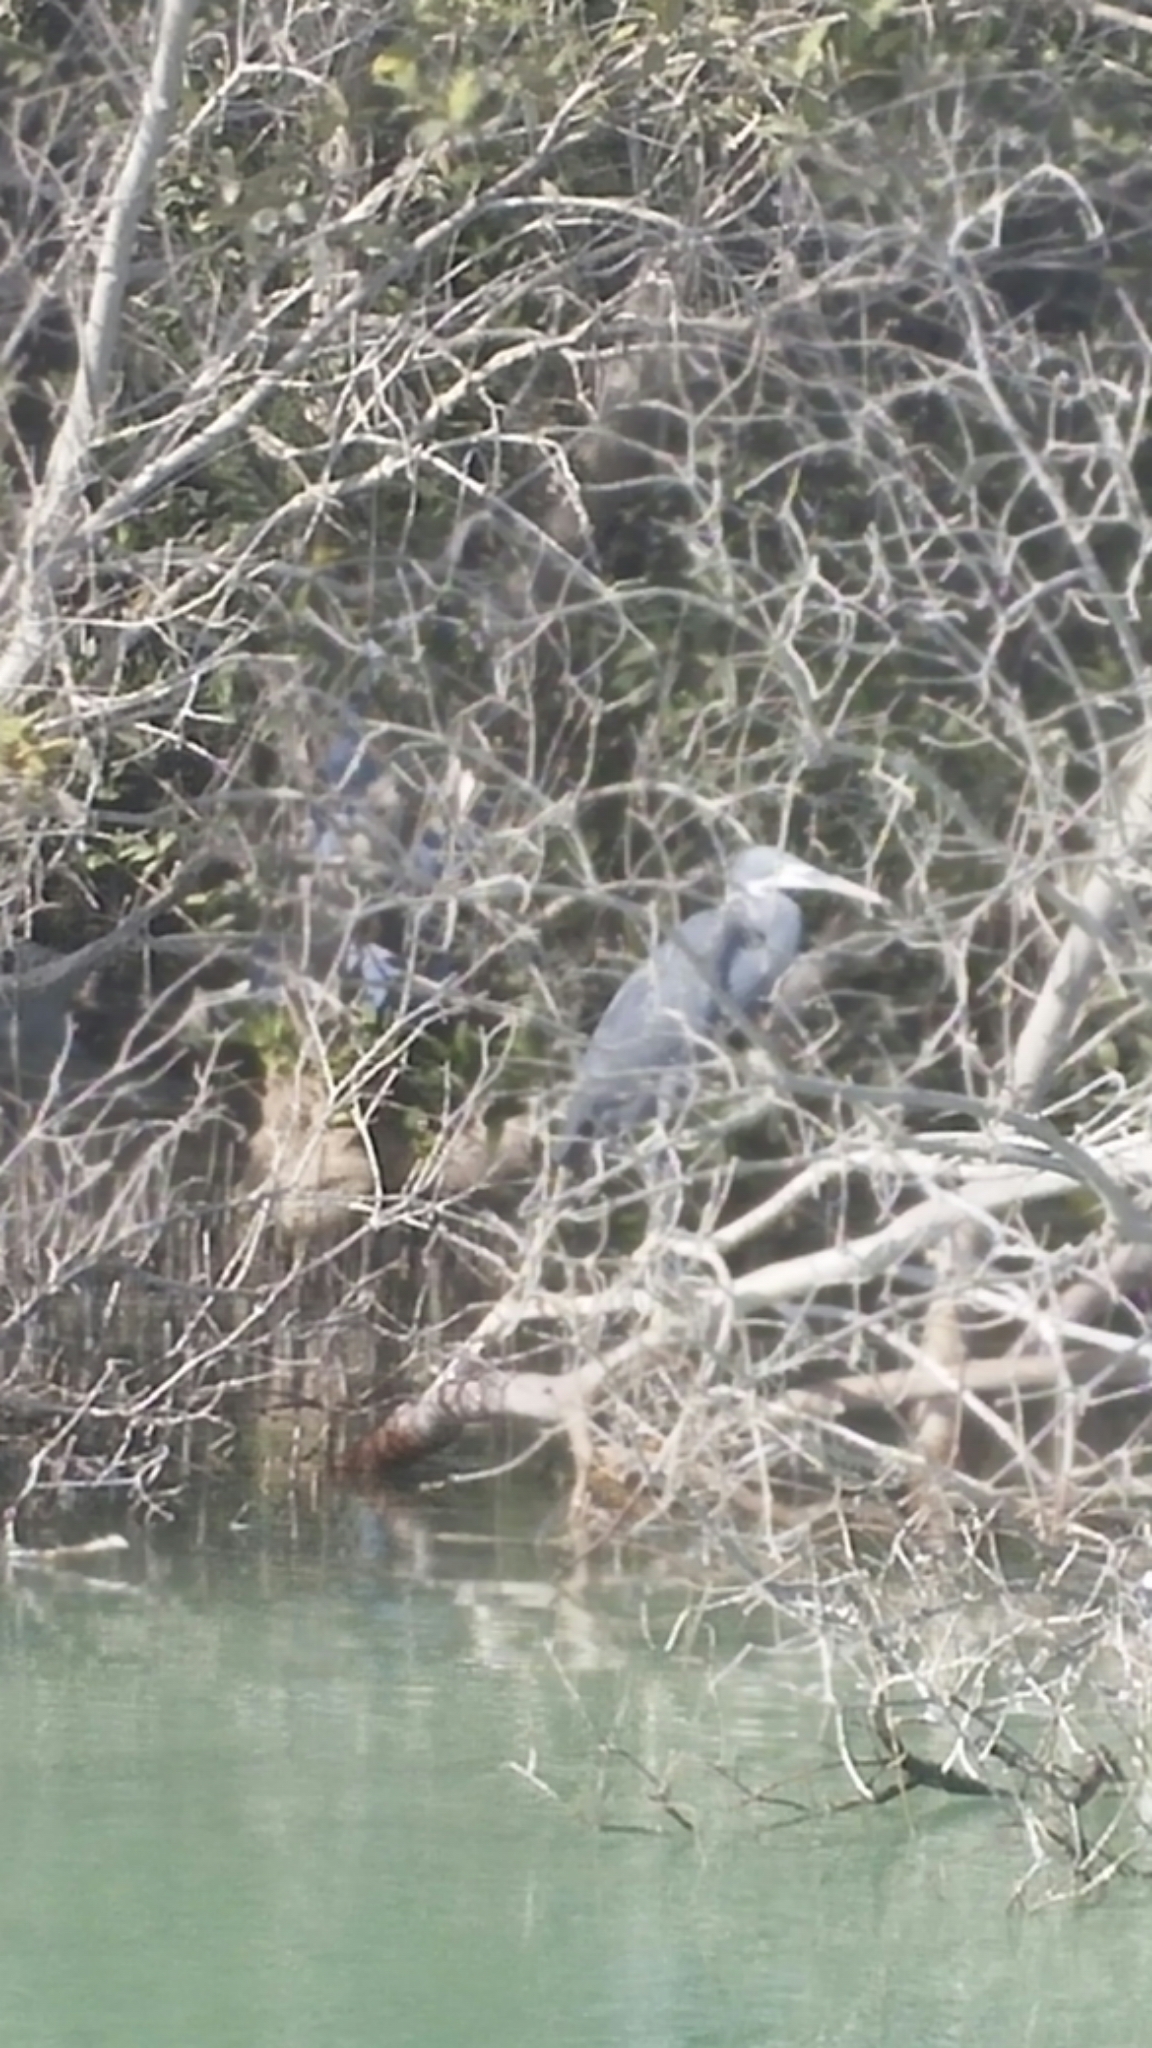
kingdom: Animalia
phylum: Chordata
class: Aves
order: Pelecaniformes
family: Ardeidae
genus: Egretta
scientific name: Egretta gularis
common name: Western reef-heron
